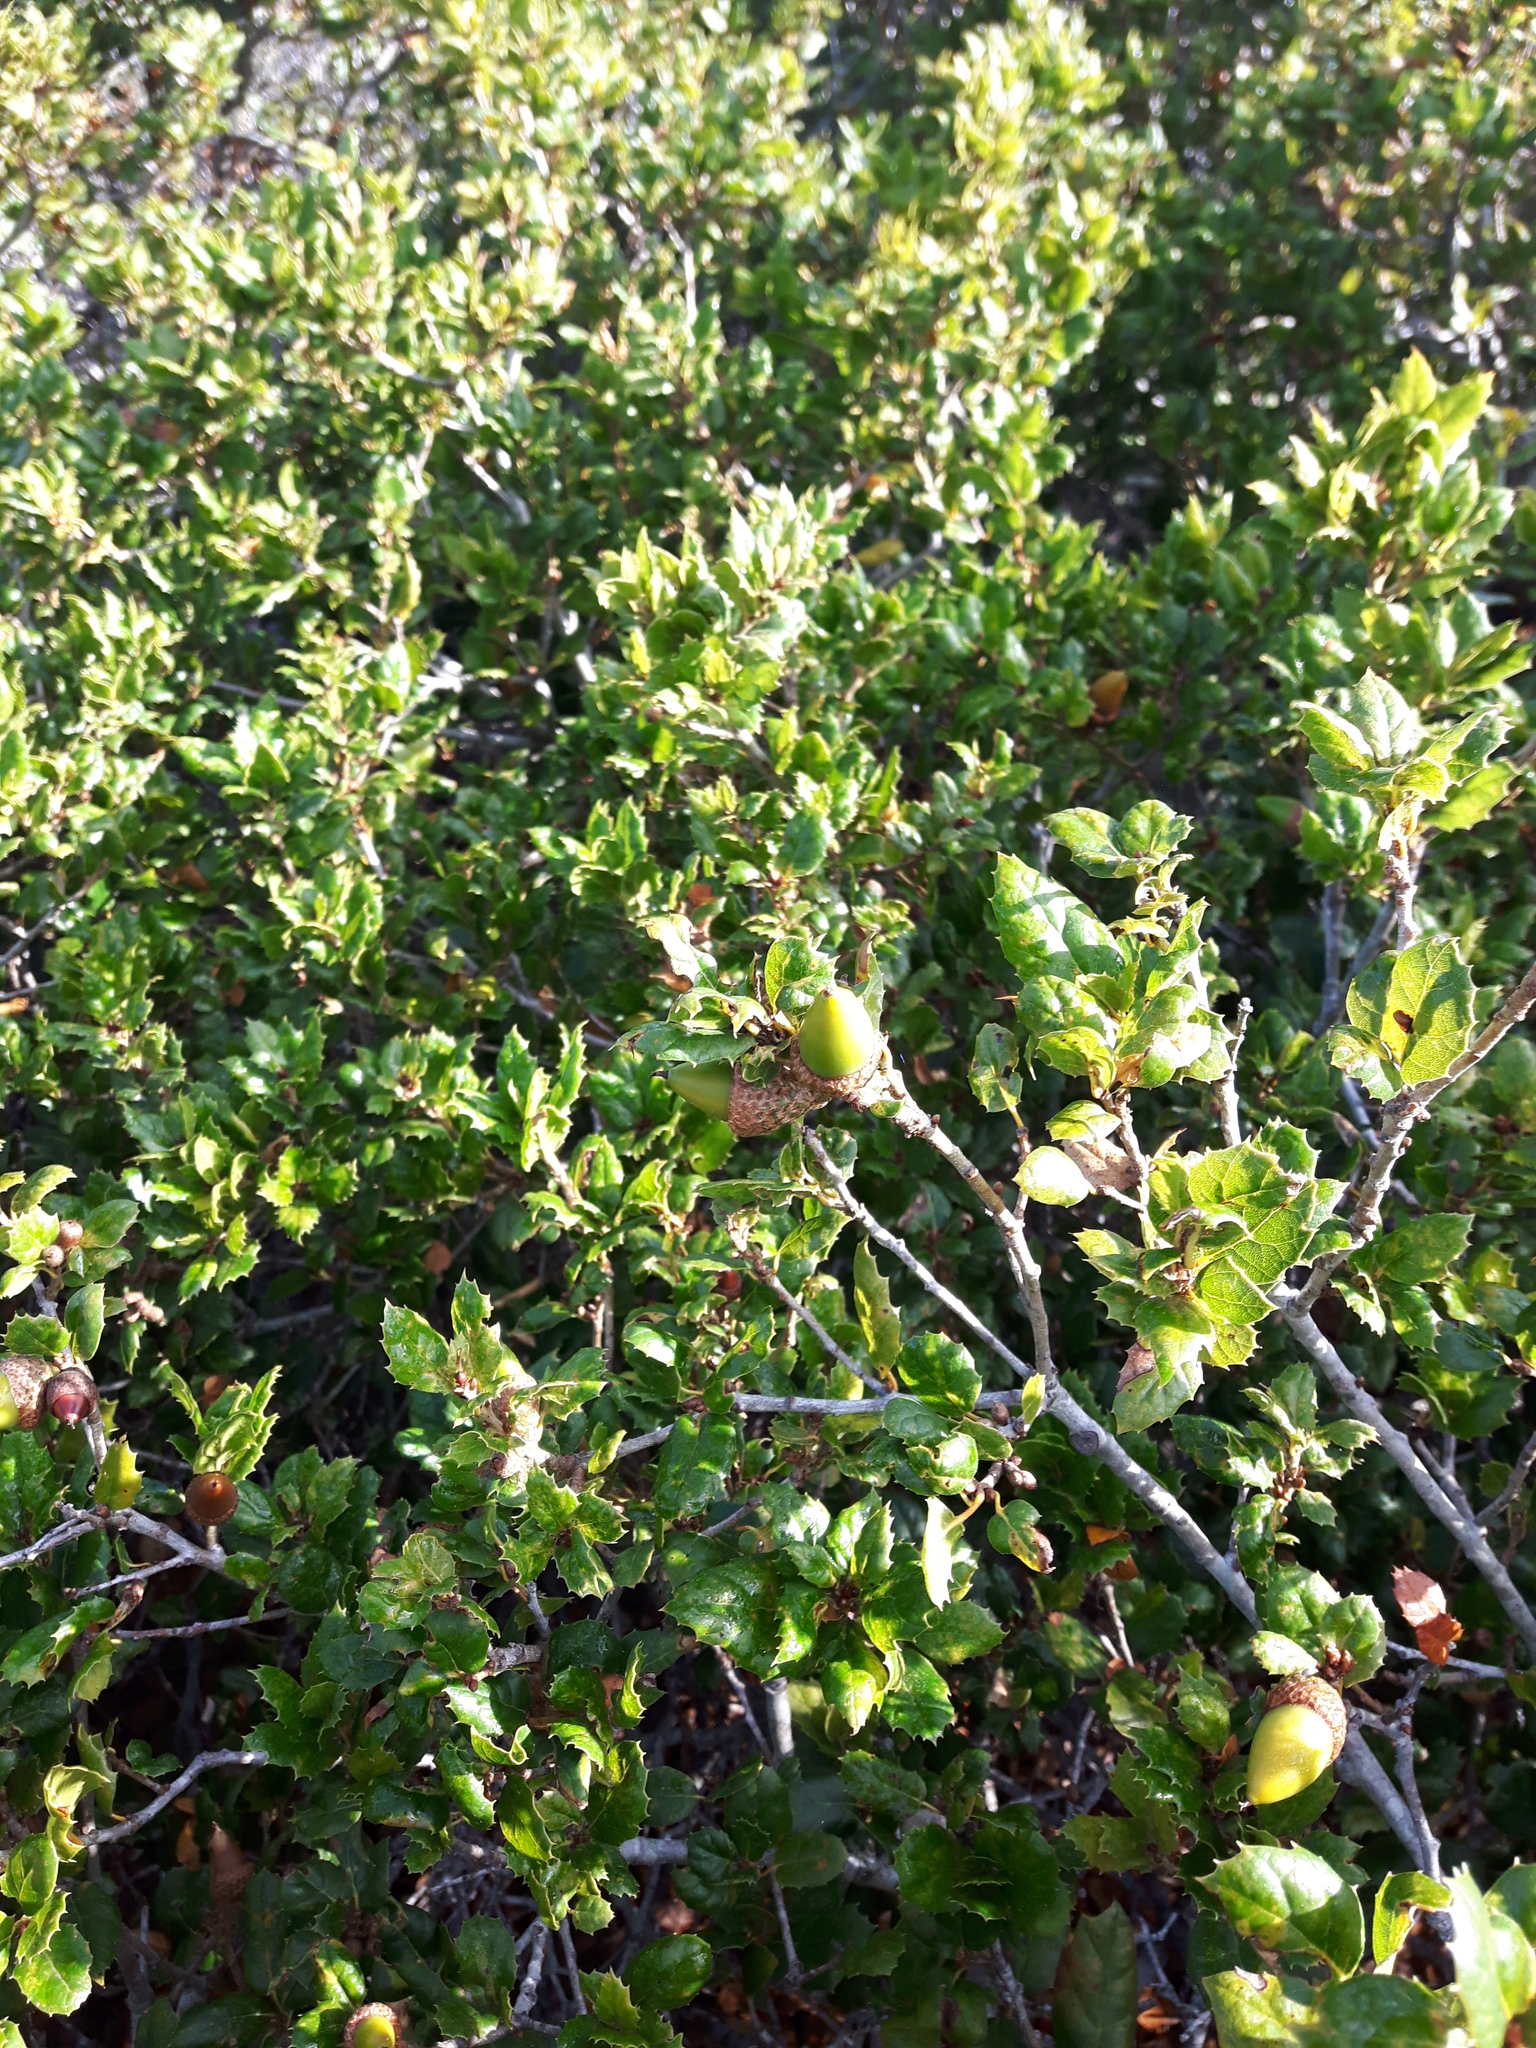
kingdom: Plantae
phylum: Tracheophyta
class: Magnoliopsida
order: Fagales
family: Fagaceae
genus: Quercus
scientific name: Quercus agrifolia
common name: California live oak
